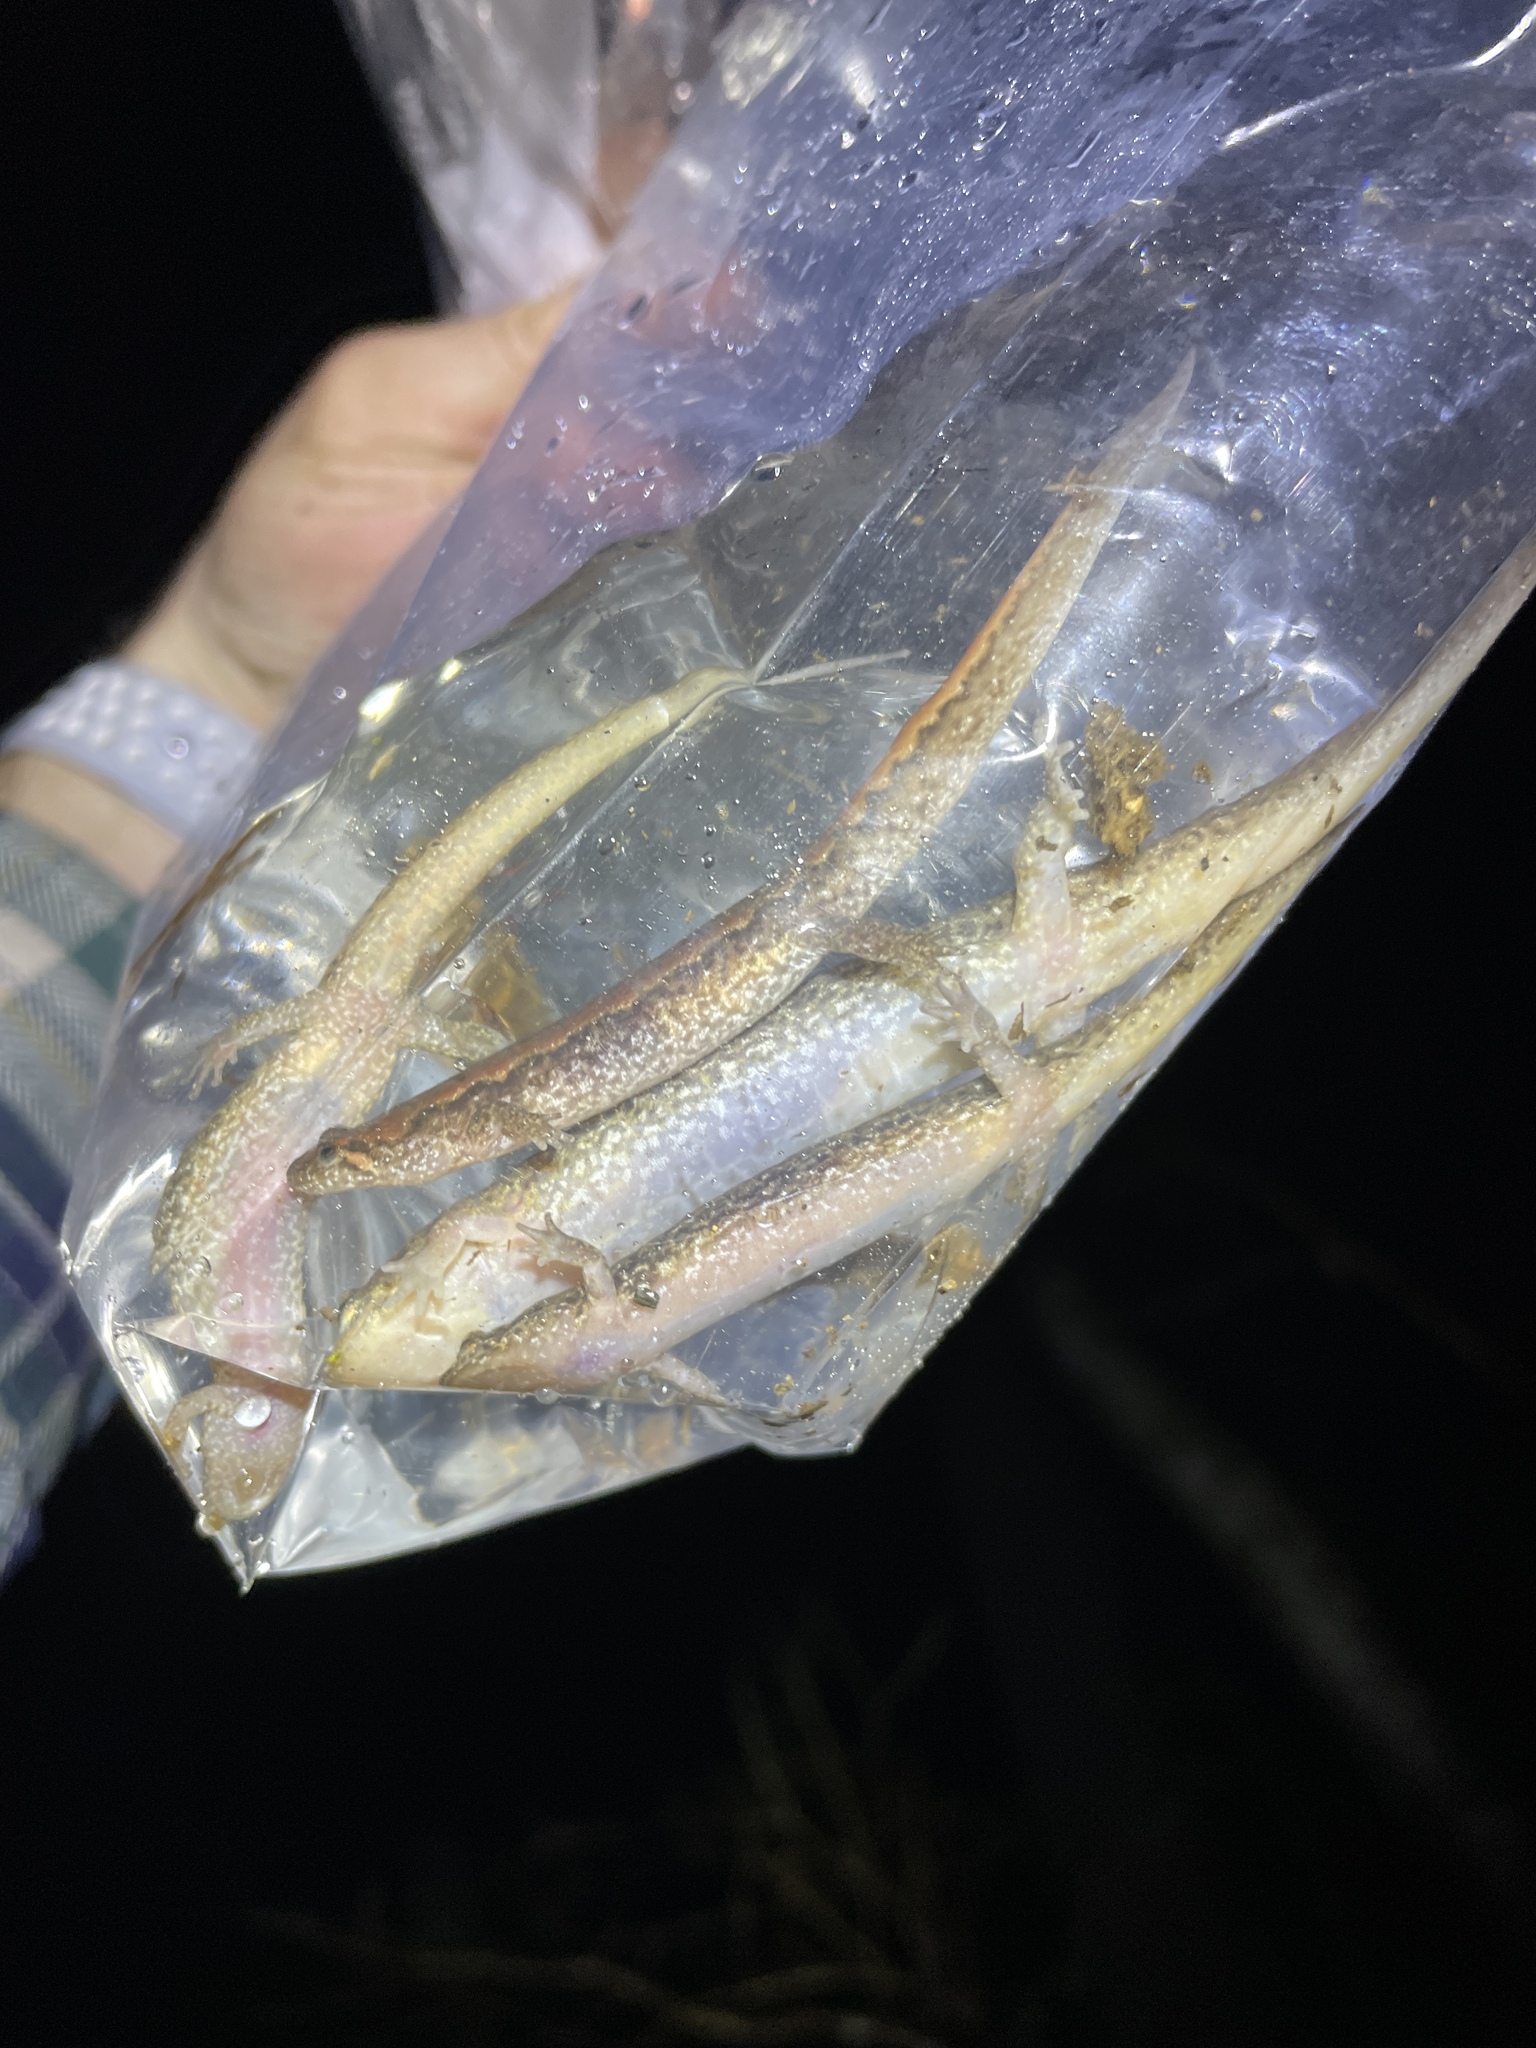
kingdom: Animalia
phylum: Chordata
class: Amphibia
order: Caudata
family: Plethodontidae
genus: Desmognathus
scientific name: Desmognathus fuscus
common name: Northern dusky salamander
